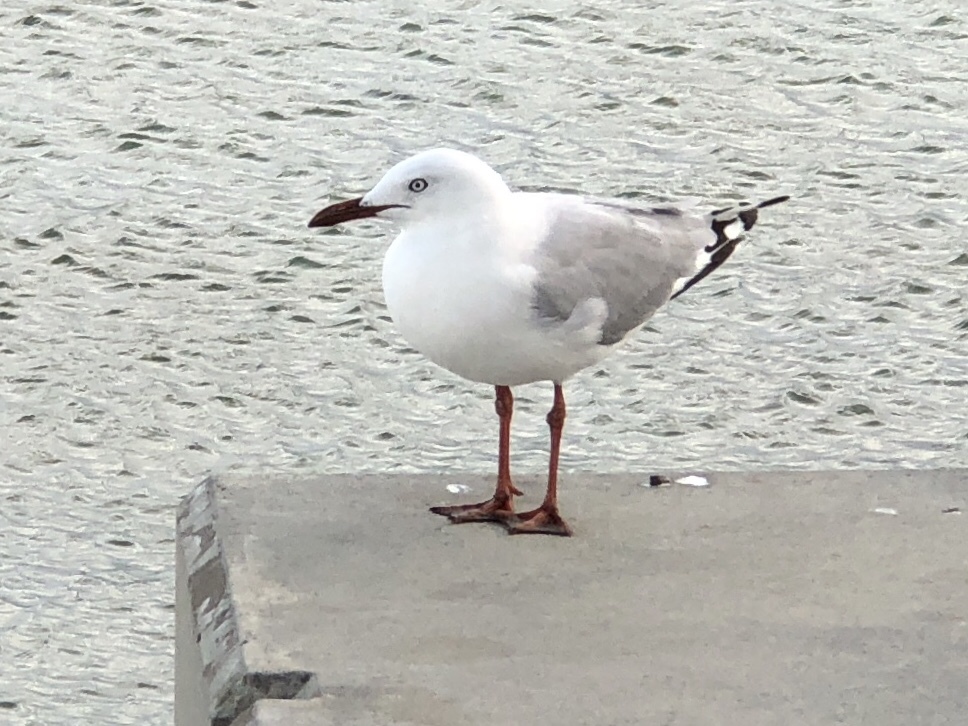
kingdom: Animalia
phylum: Chordata
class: Aves
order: Charadriiformes
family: Laridae
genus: Chroicocephalus
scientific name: Chroicocephalus novaehollandiae
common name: Silver gull
